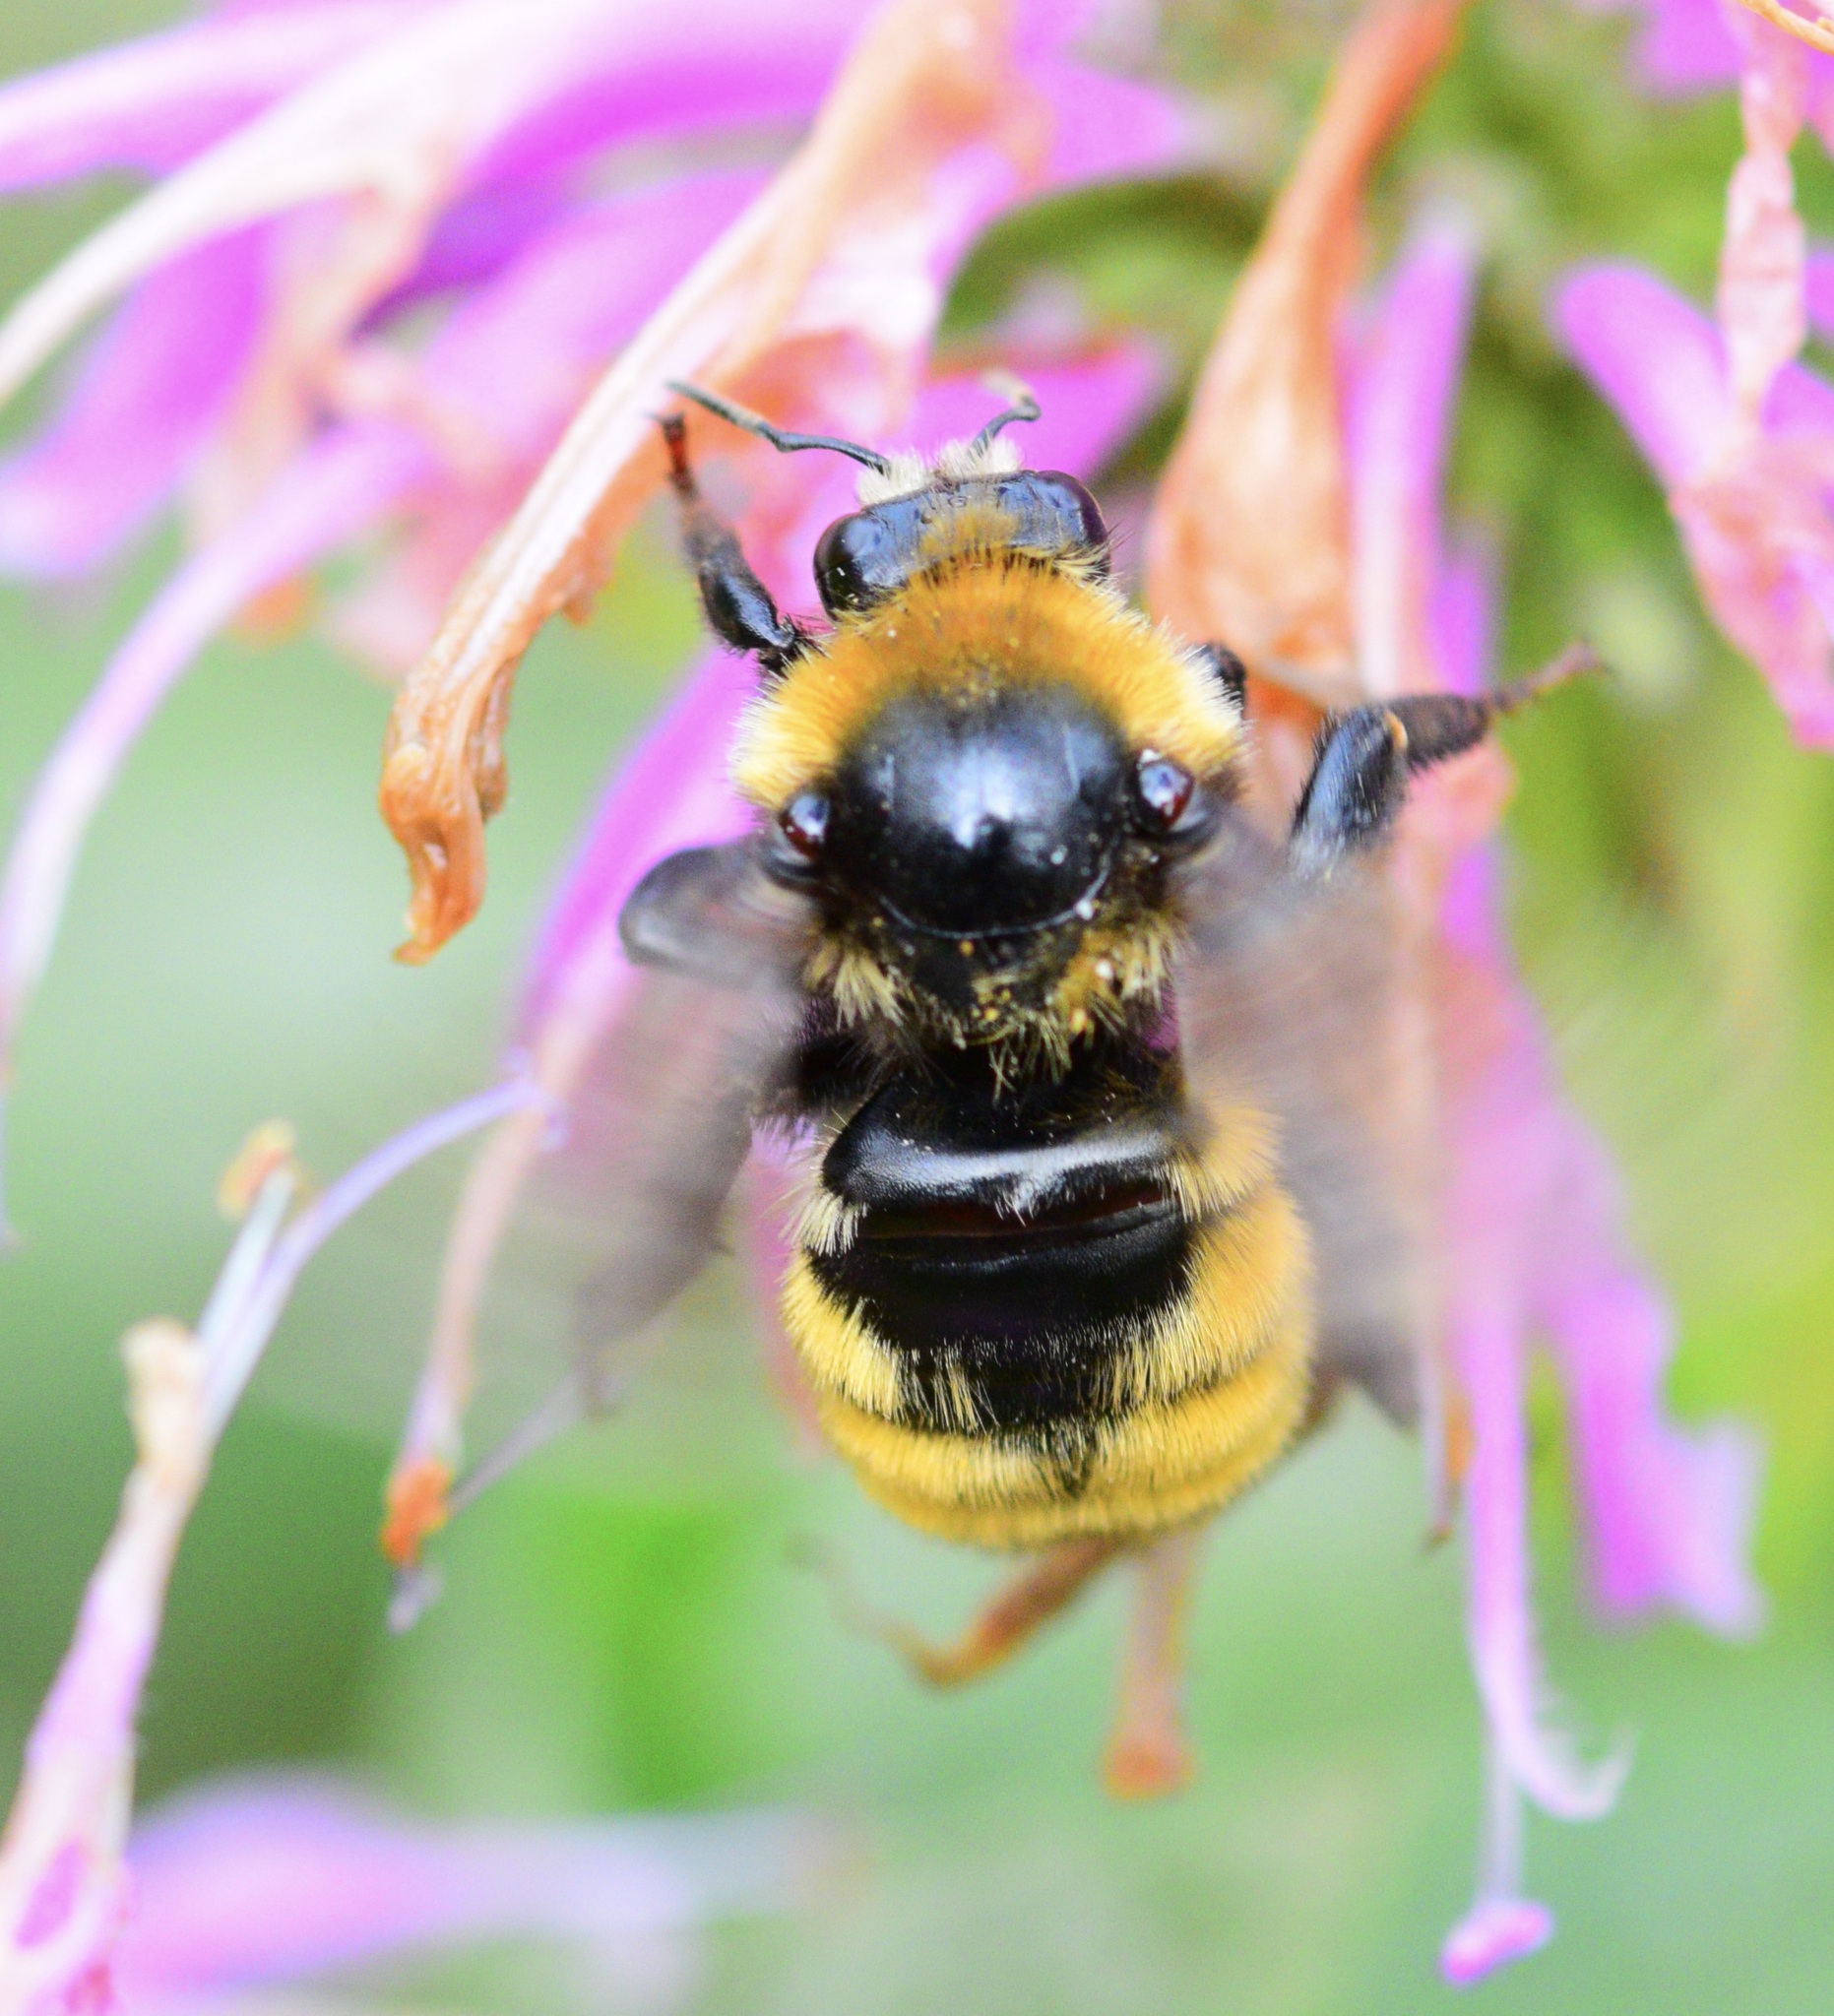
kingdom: Animalia
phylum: Arthropoda
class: Insecta
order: Hymenoptera
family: Apidae
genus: Bombus
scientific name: Bombus borealis
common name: Northern amber bumble bee
